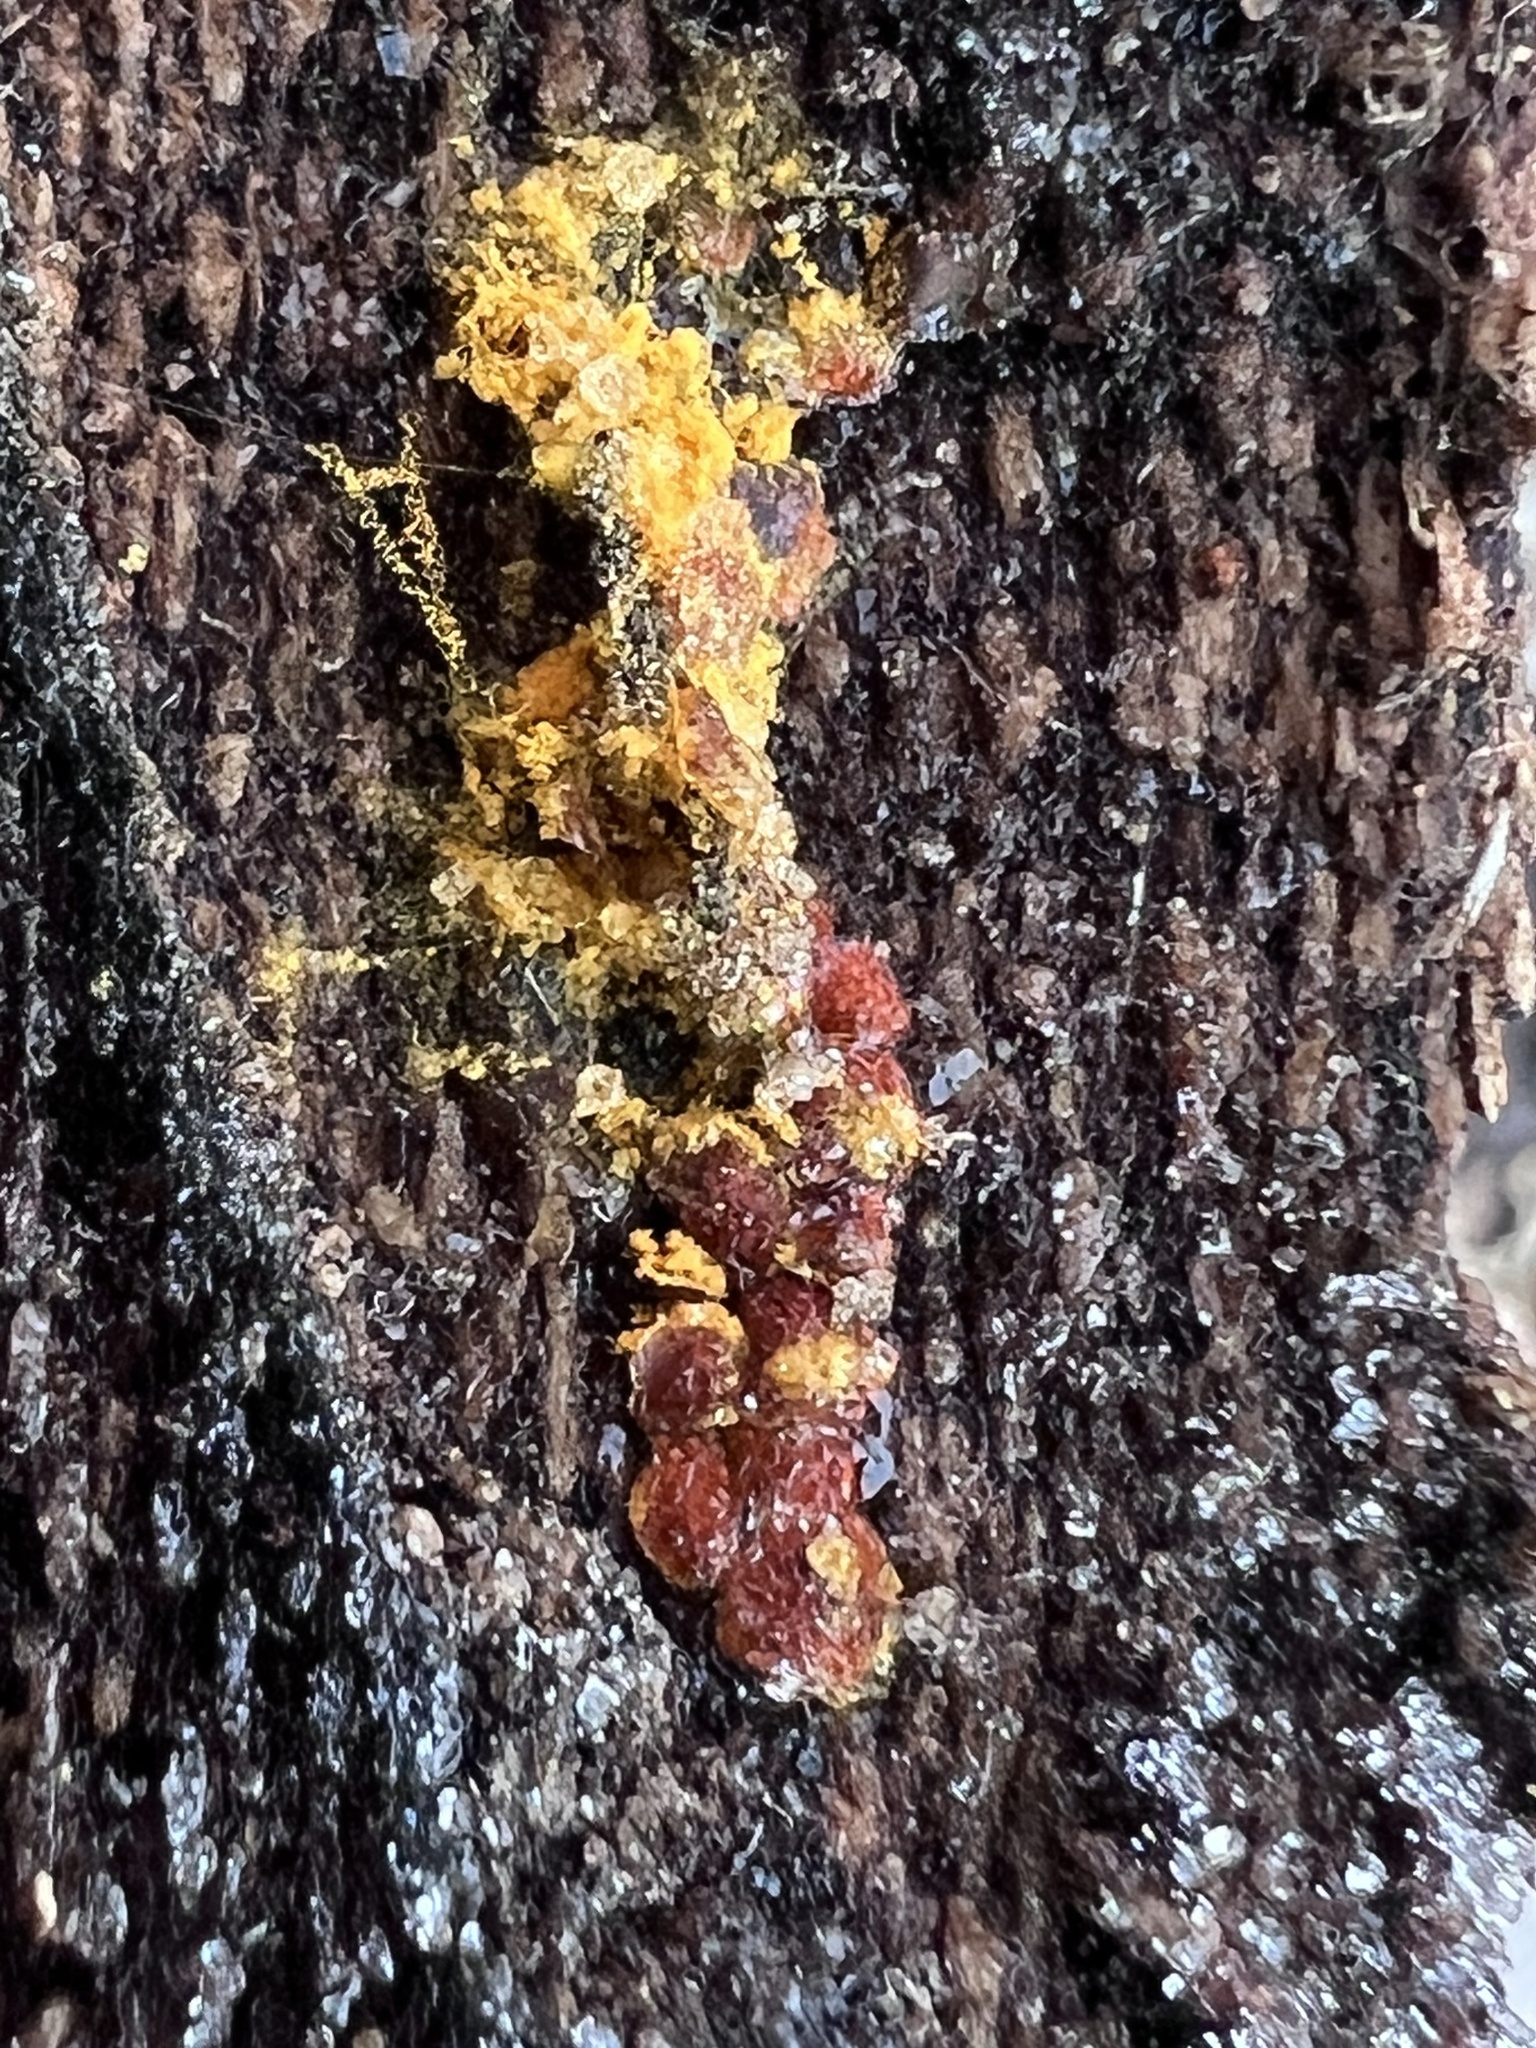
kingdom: Protozoa
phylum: Mycetozoa
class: Myxomycetes
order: Trichiales
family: Trichiaceae
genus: Perichaena
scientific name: Perichaena depressa
